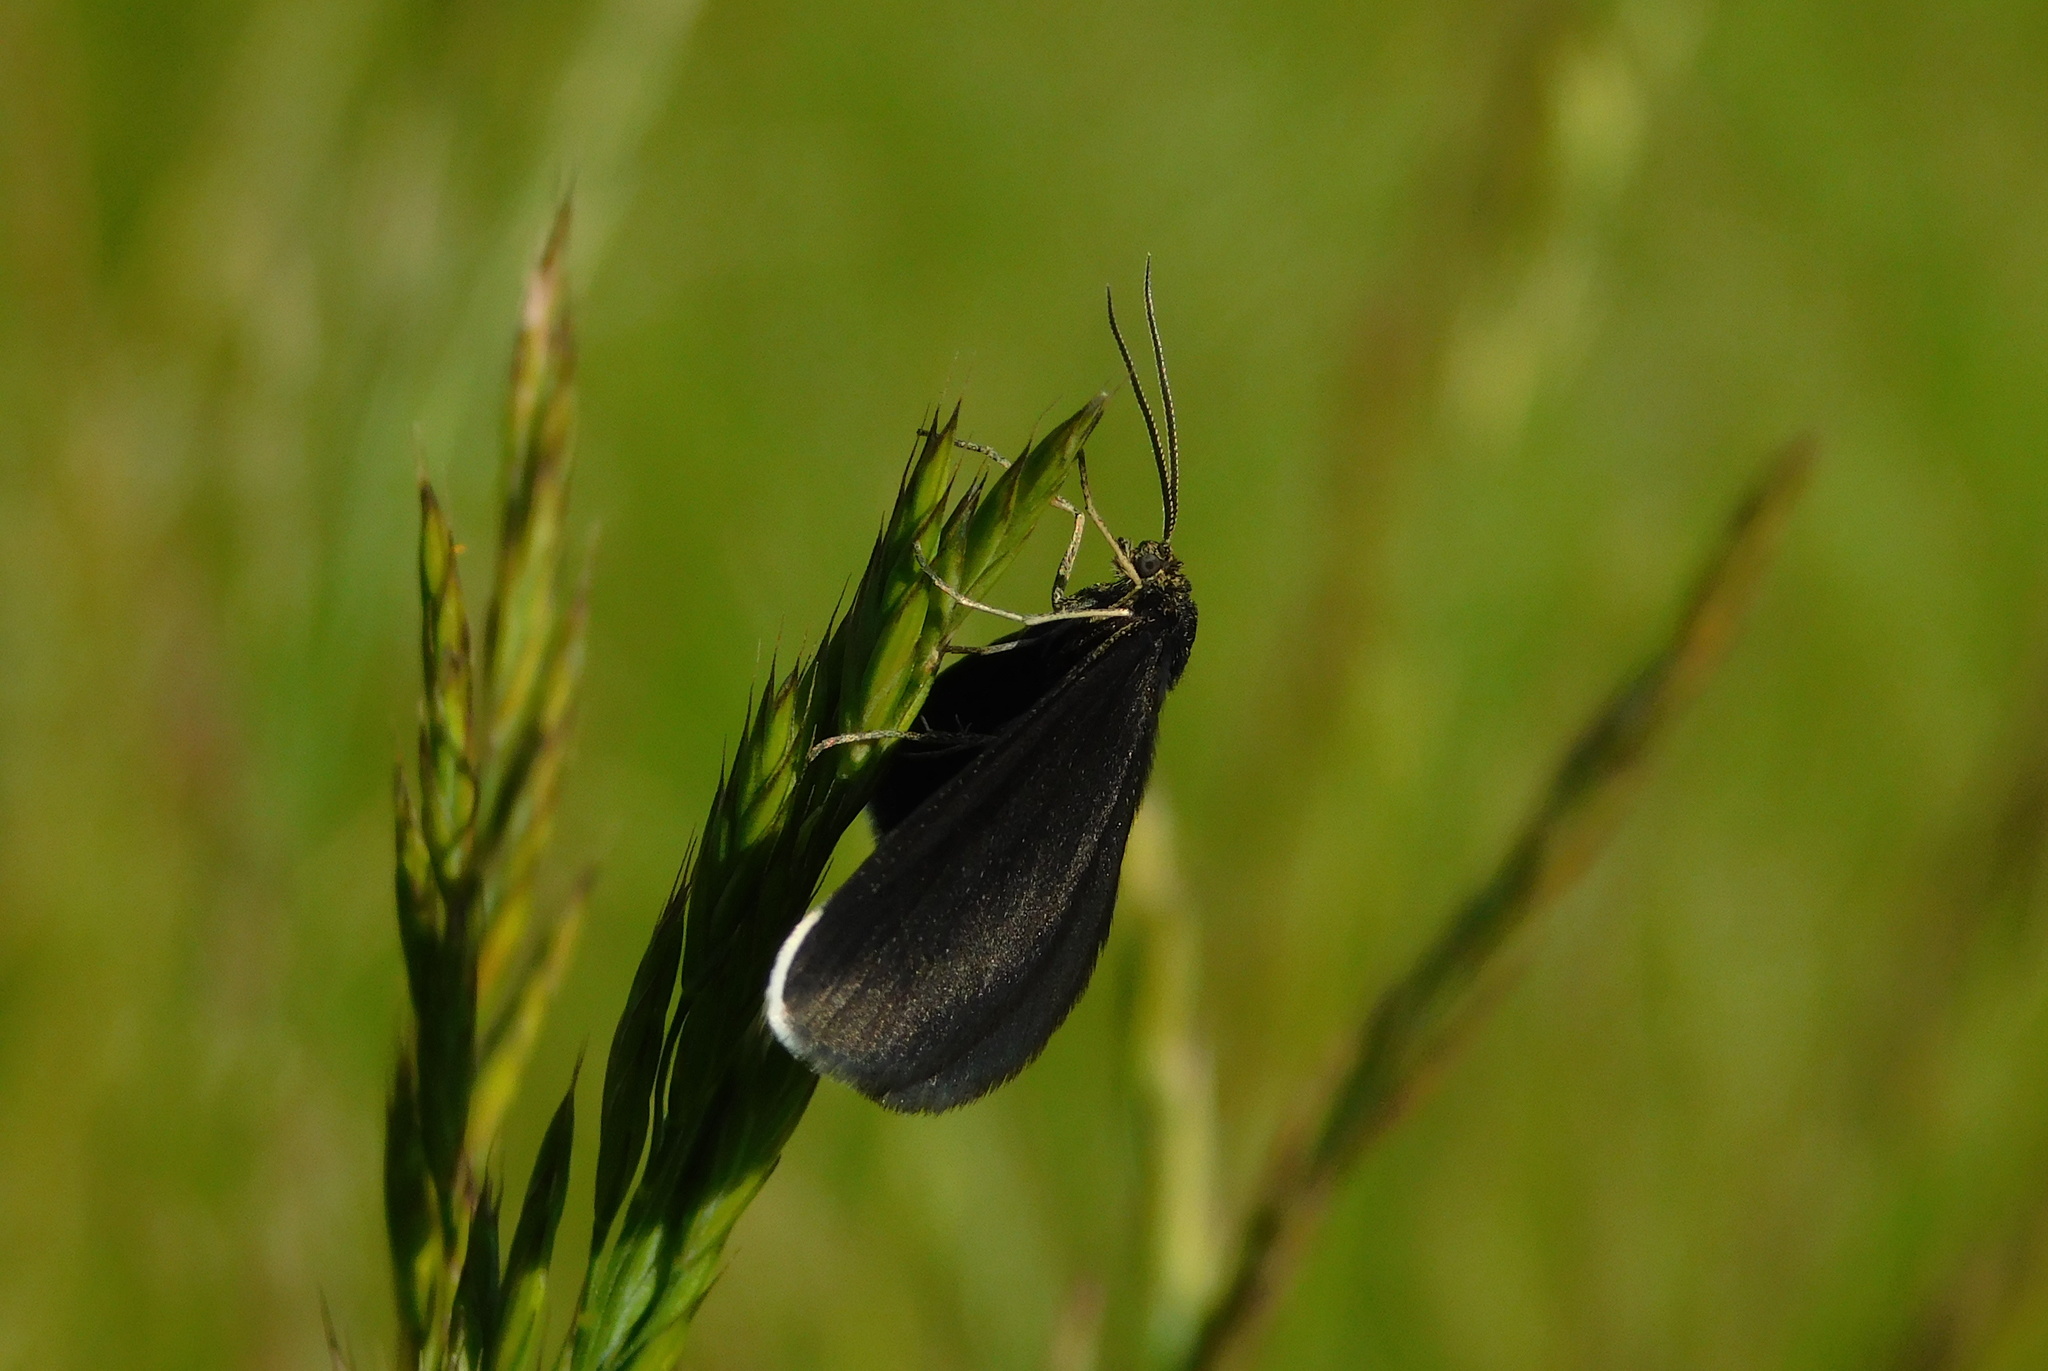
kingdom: Animalia
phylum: Arthropoda
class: Insecta
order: Lepidoptera
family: Geometridae
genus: Odezia
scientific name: Odezia atrata
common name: Chimney sweeper
